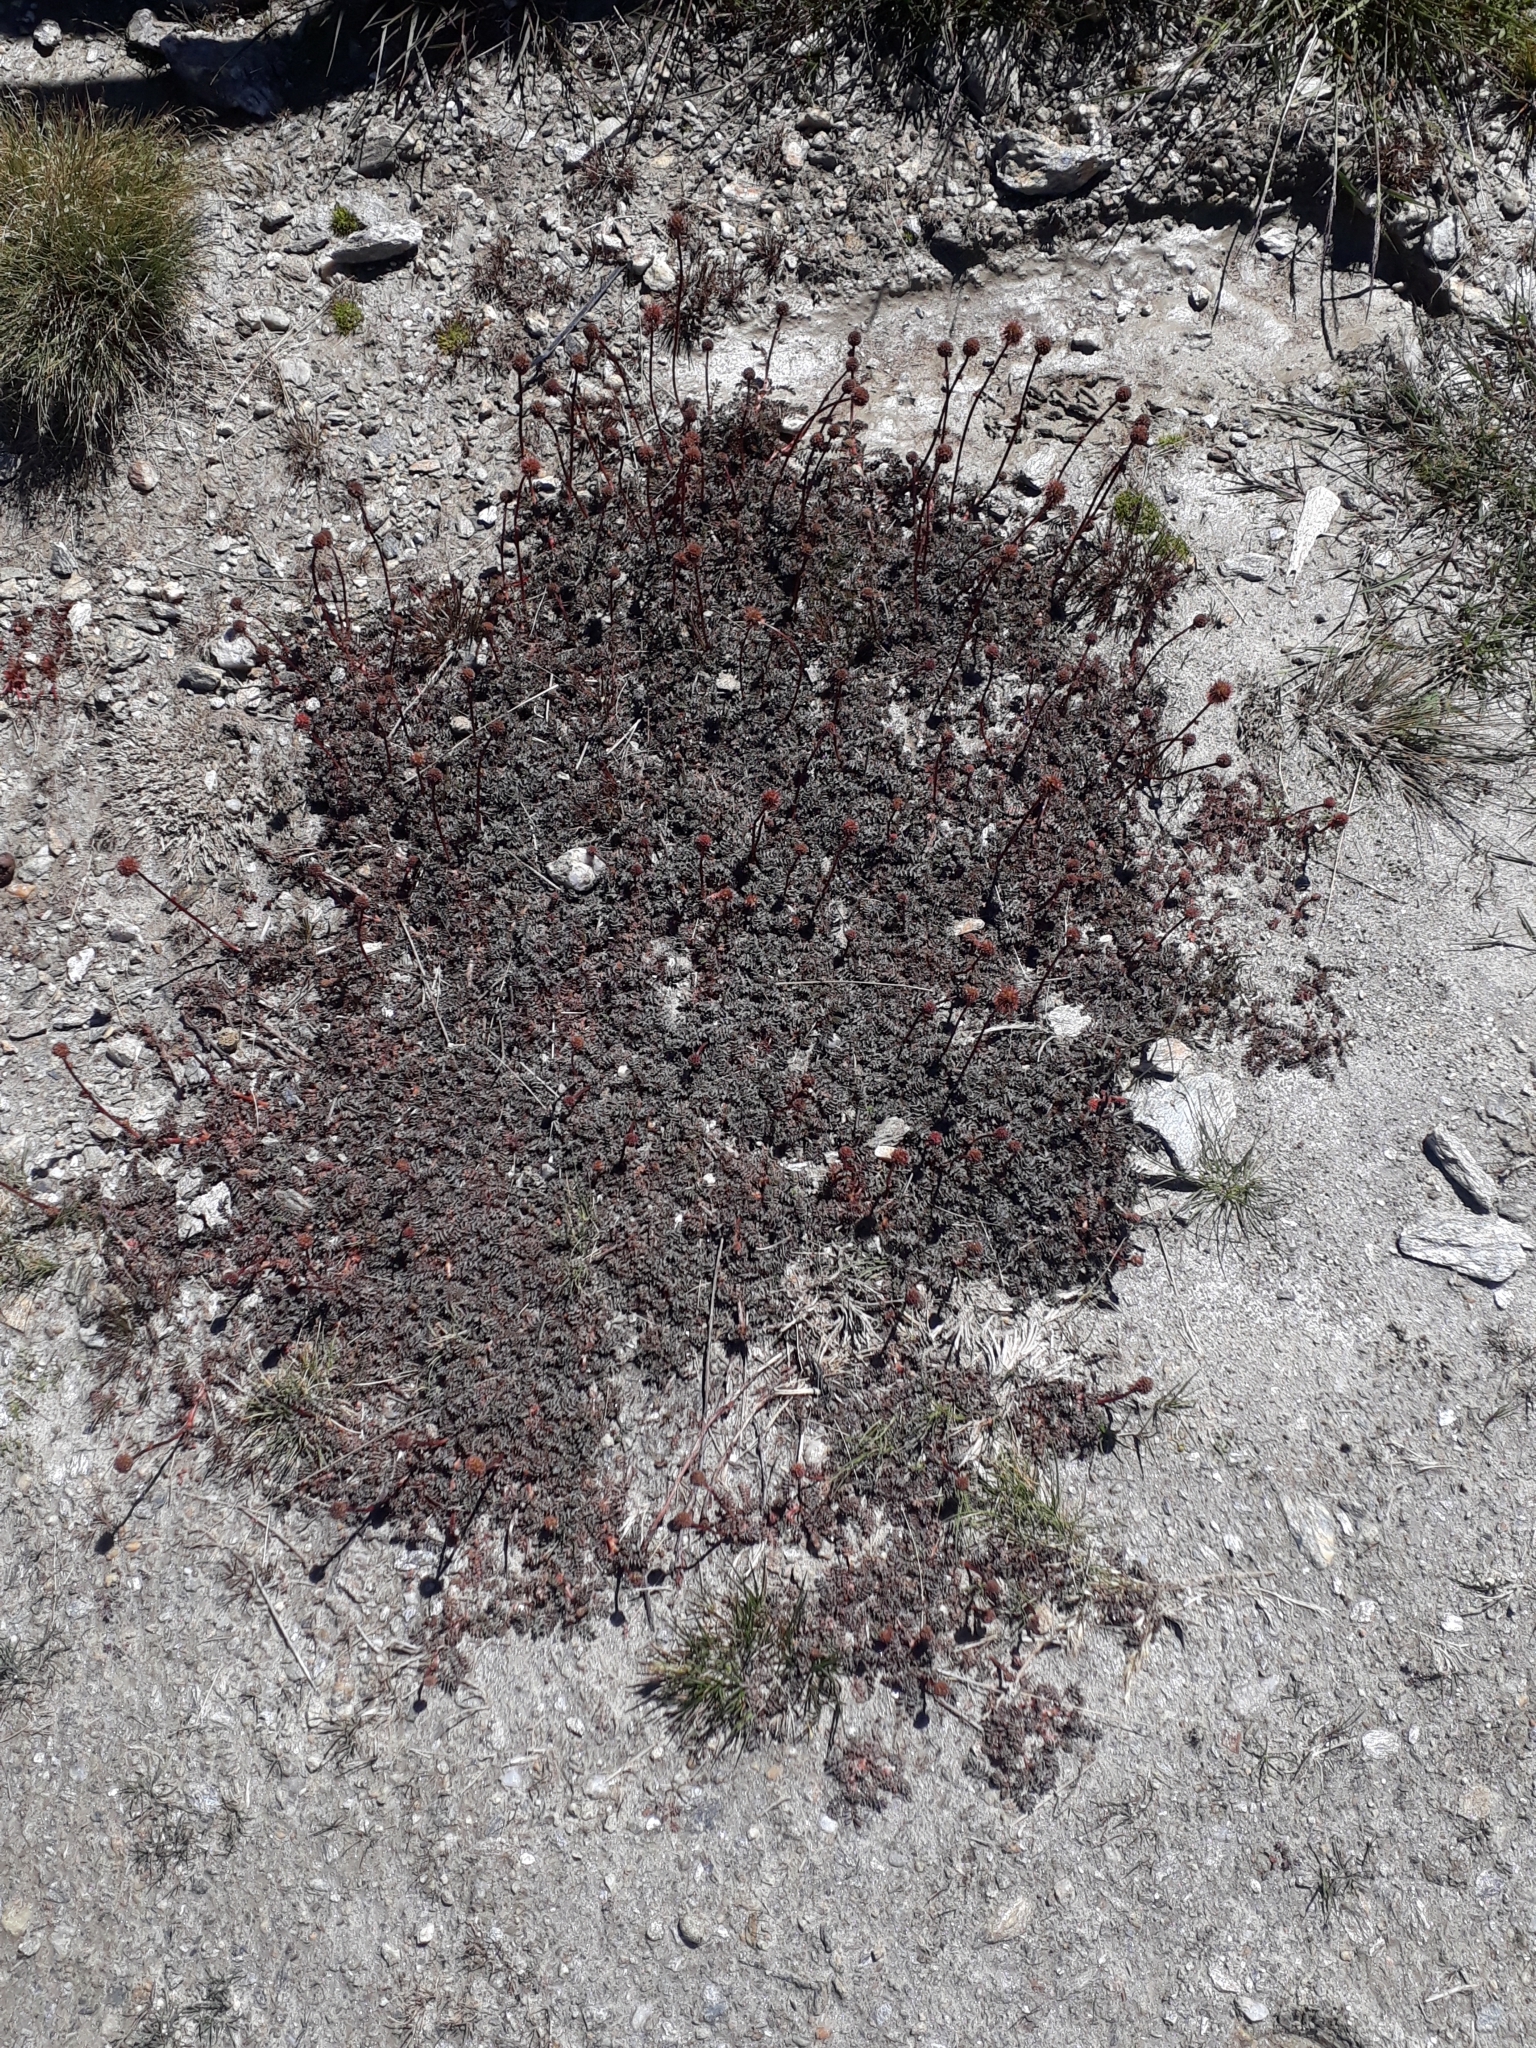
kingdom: Plantae
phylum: Tracheophyta
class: Magnoliopsida
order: Rosales
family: Rosaceae
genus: Acaena
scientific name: Acaena saccaticupula
